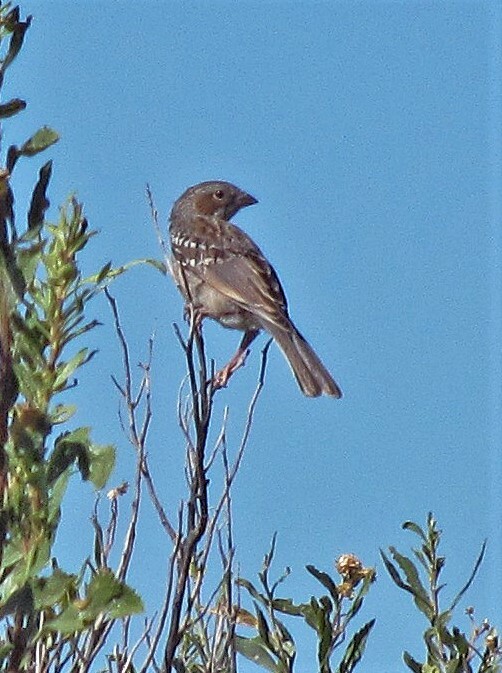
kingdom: Animalia
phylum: Chordata
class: Aves
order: Passeriformes
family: Thraupidae
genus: Rhopospina
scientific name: Rhopospina fruticeti
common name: Mourning sierra finch
